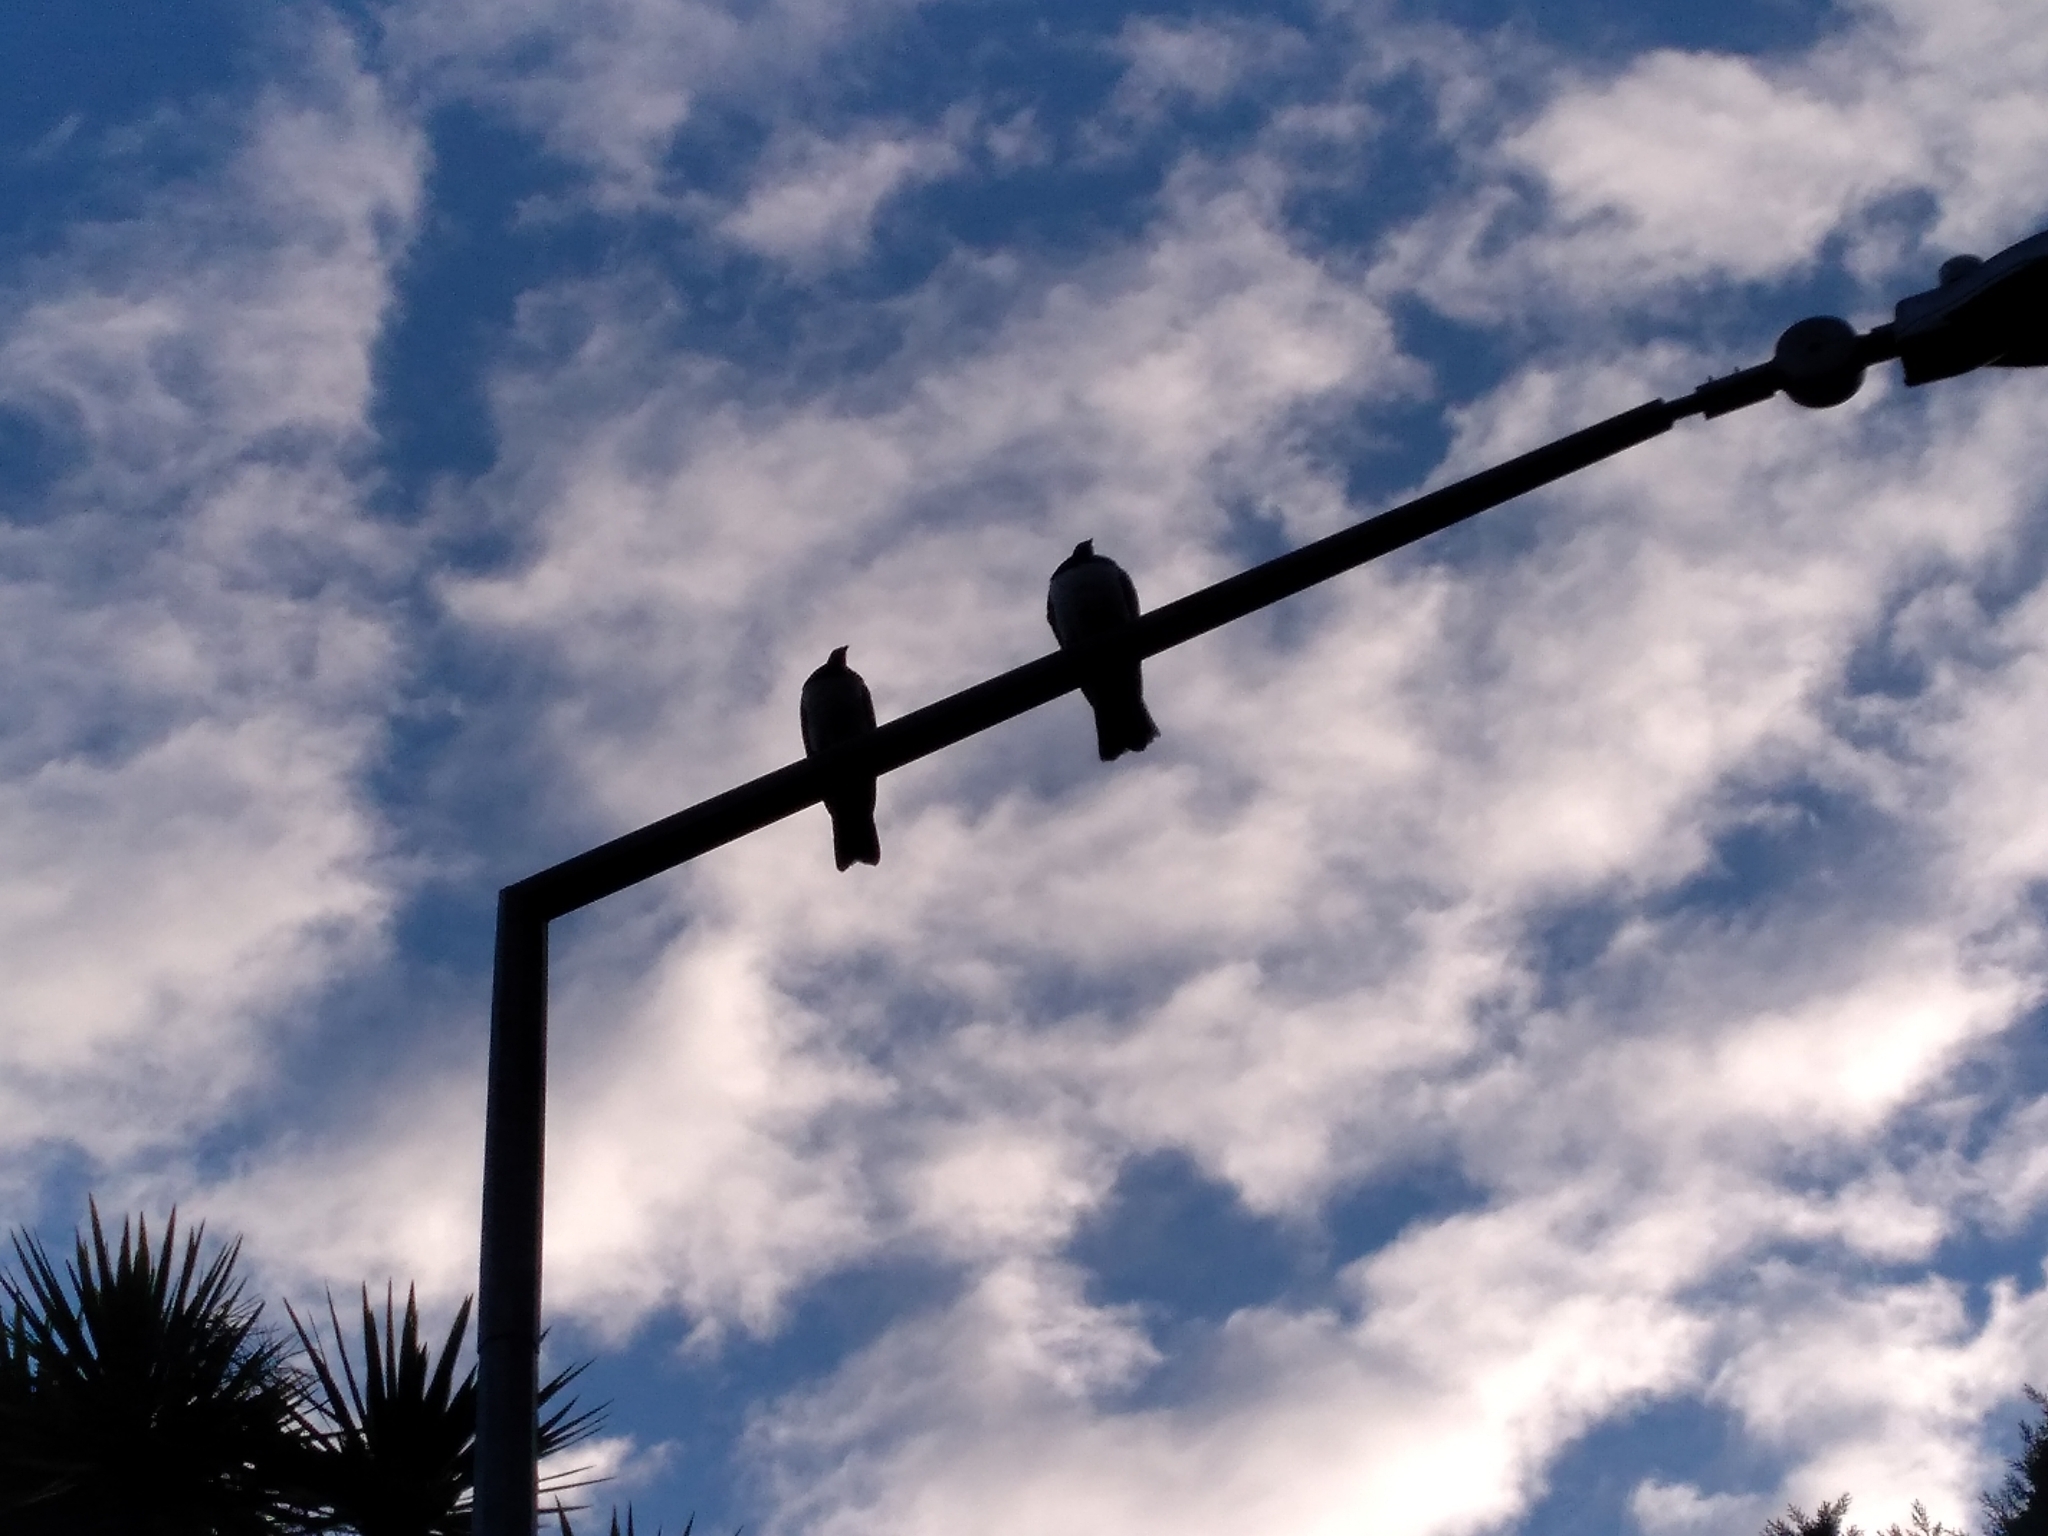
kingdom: Animalia
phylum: Chordata
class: Aves
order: Columbiformes
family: Columbidae
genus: Hemiphaga
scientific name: Hemiphaga novaeseelandiae
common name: New zealand pigeon
